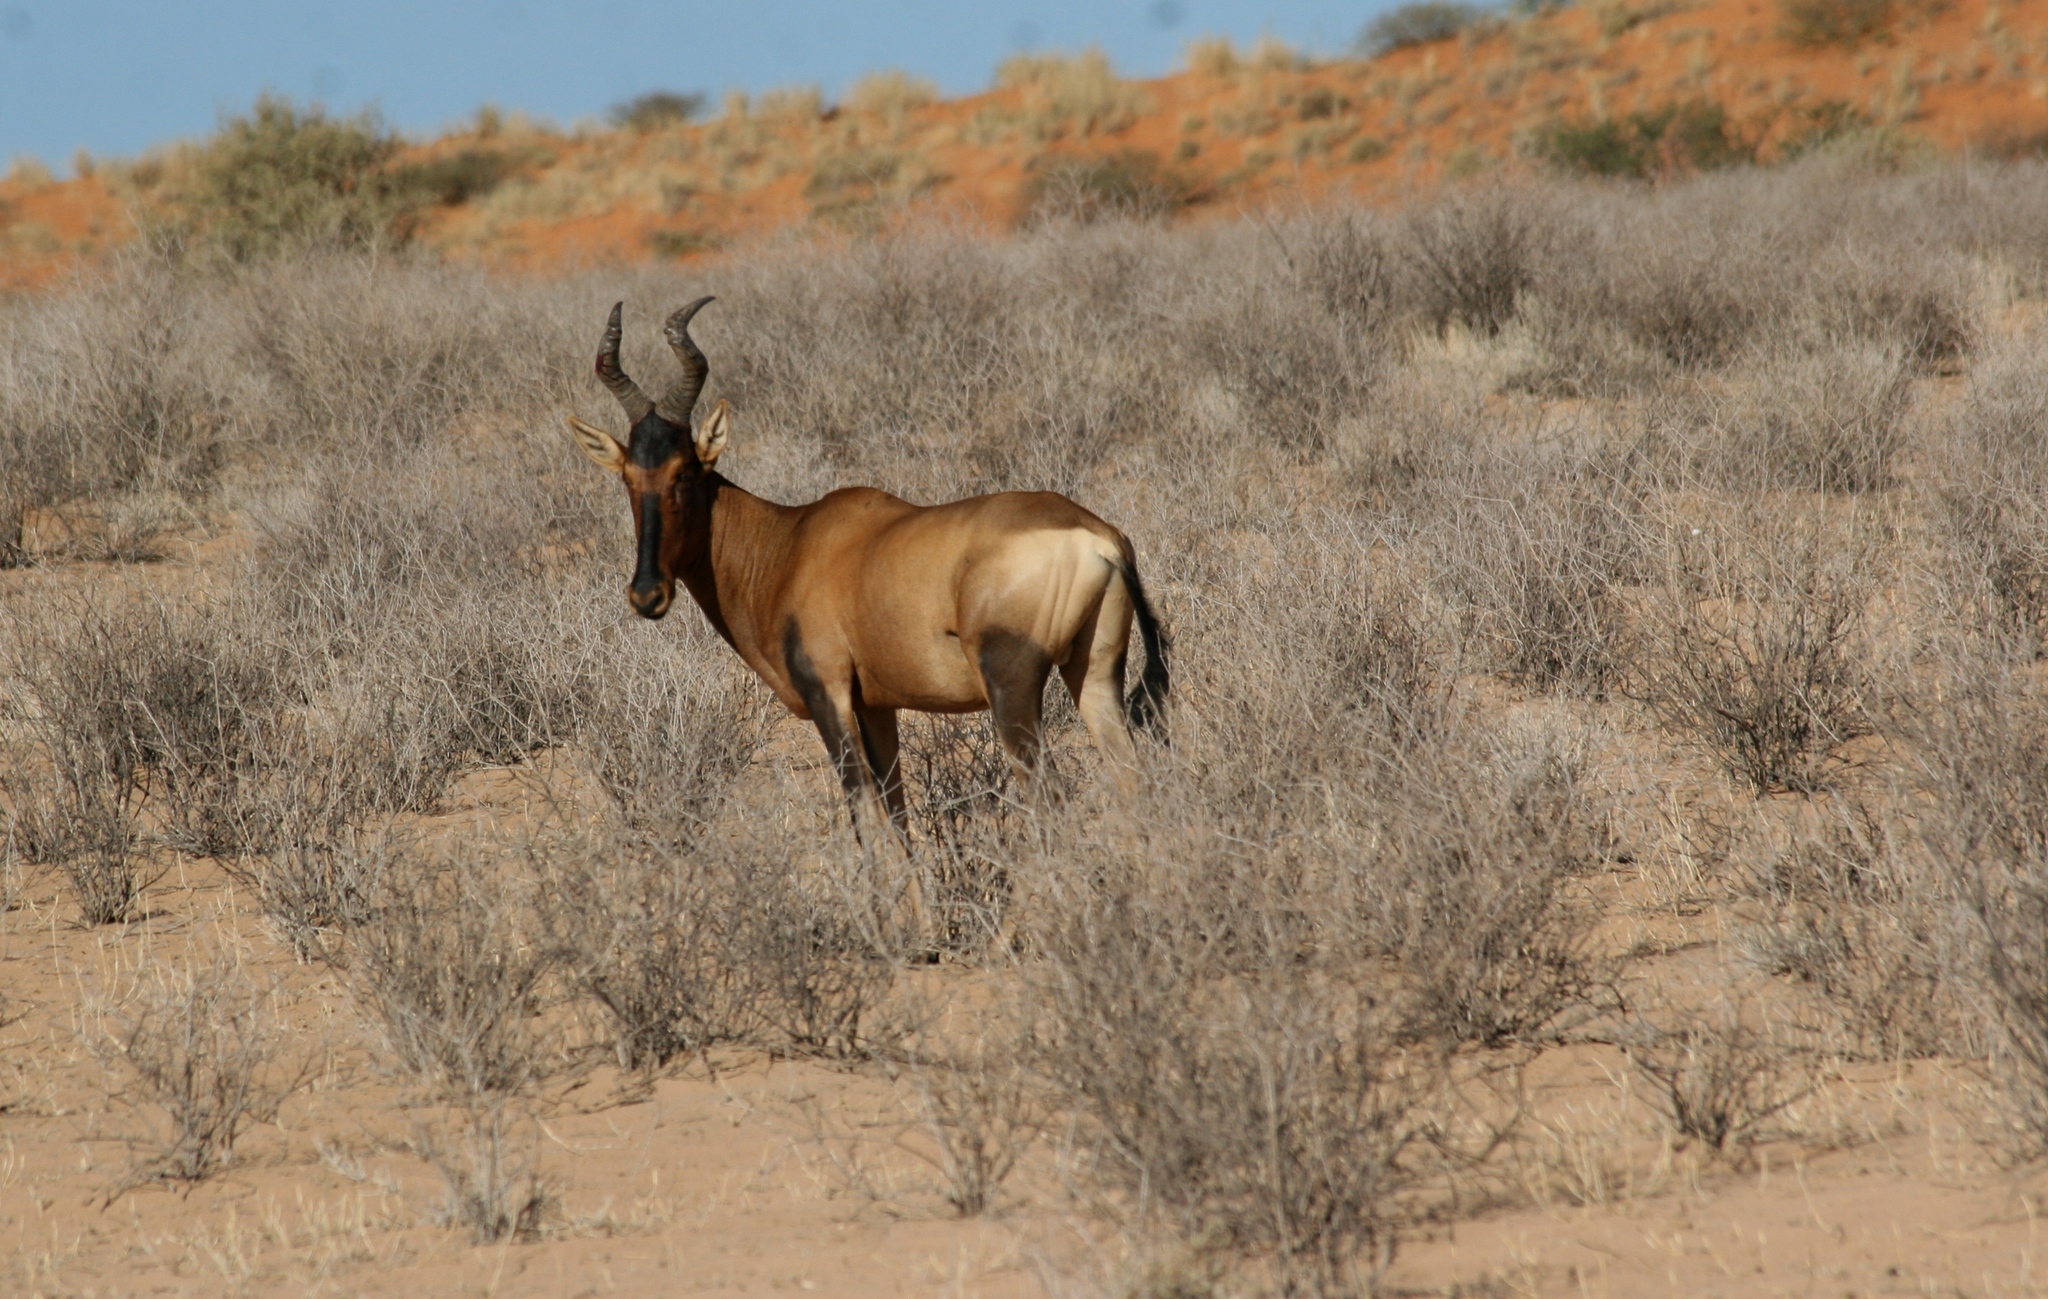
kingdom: Animalia
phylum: Chordata
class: Mammalia
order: Artiodactyla
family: Bovidae
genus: Alcelaphus
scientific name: Alcelaphus caama
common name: Red hartebeest
